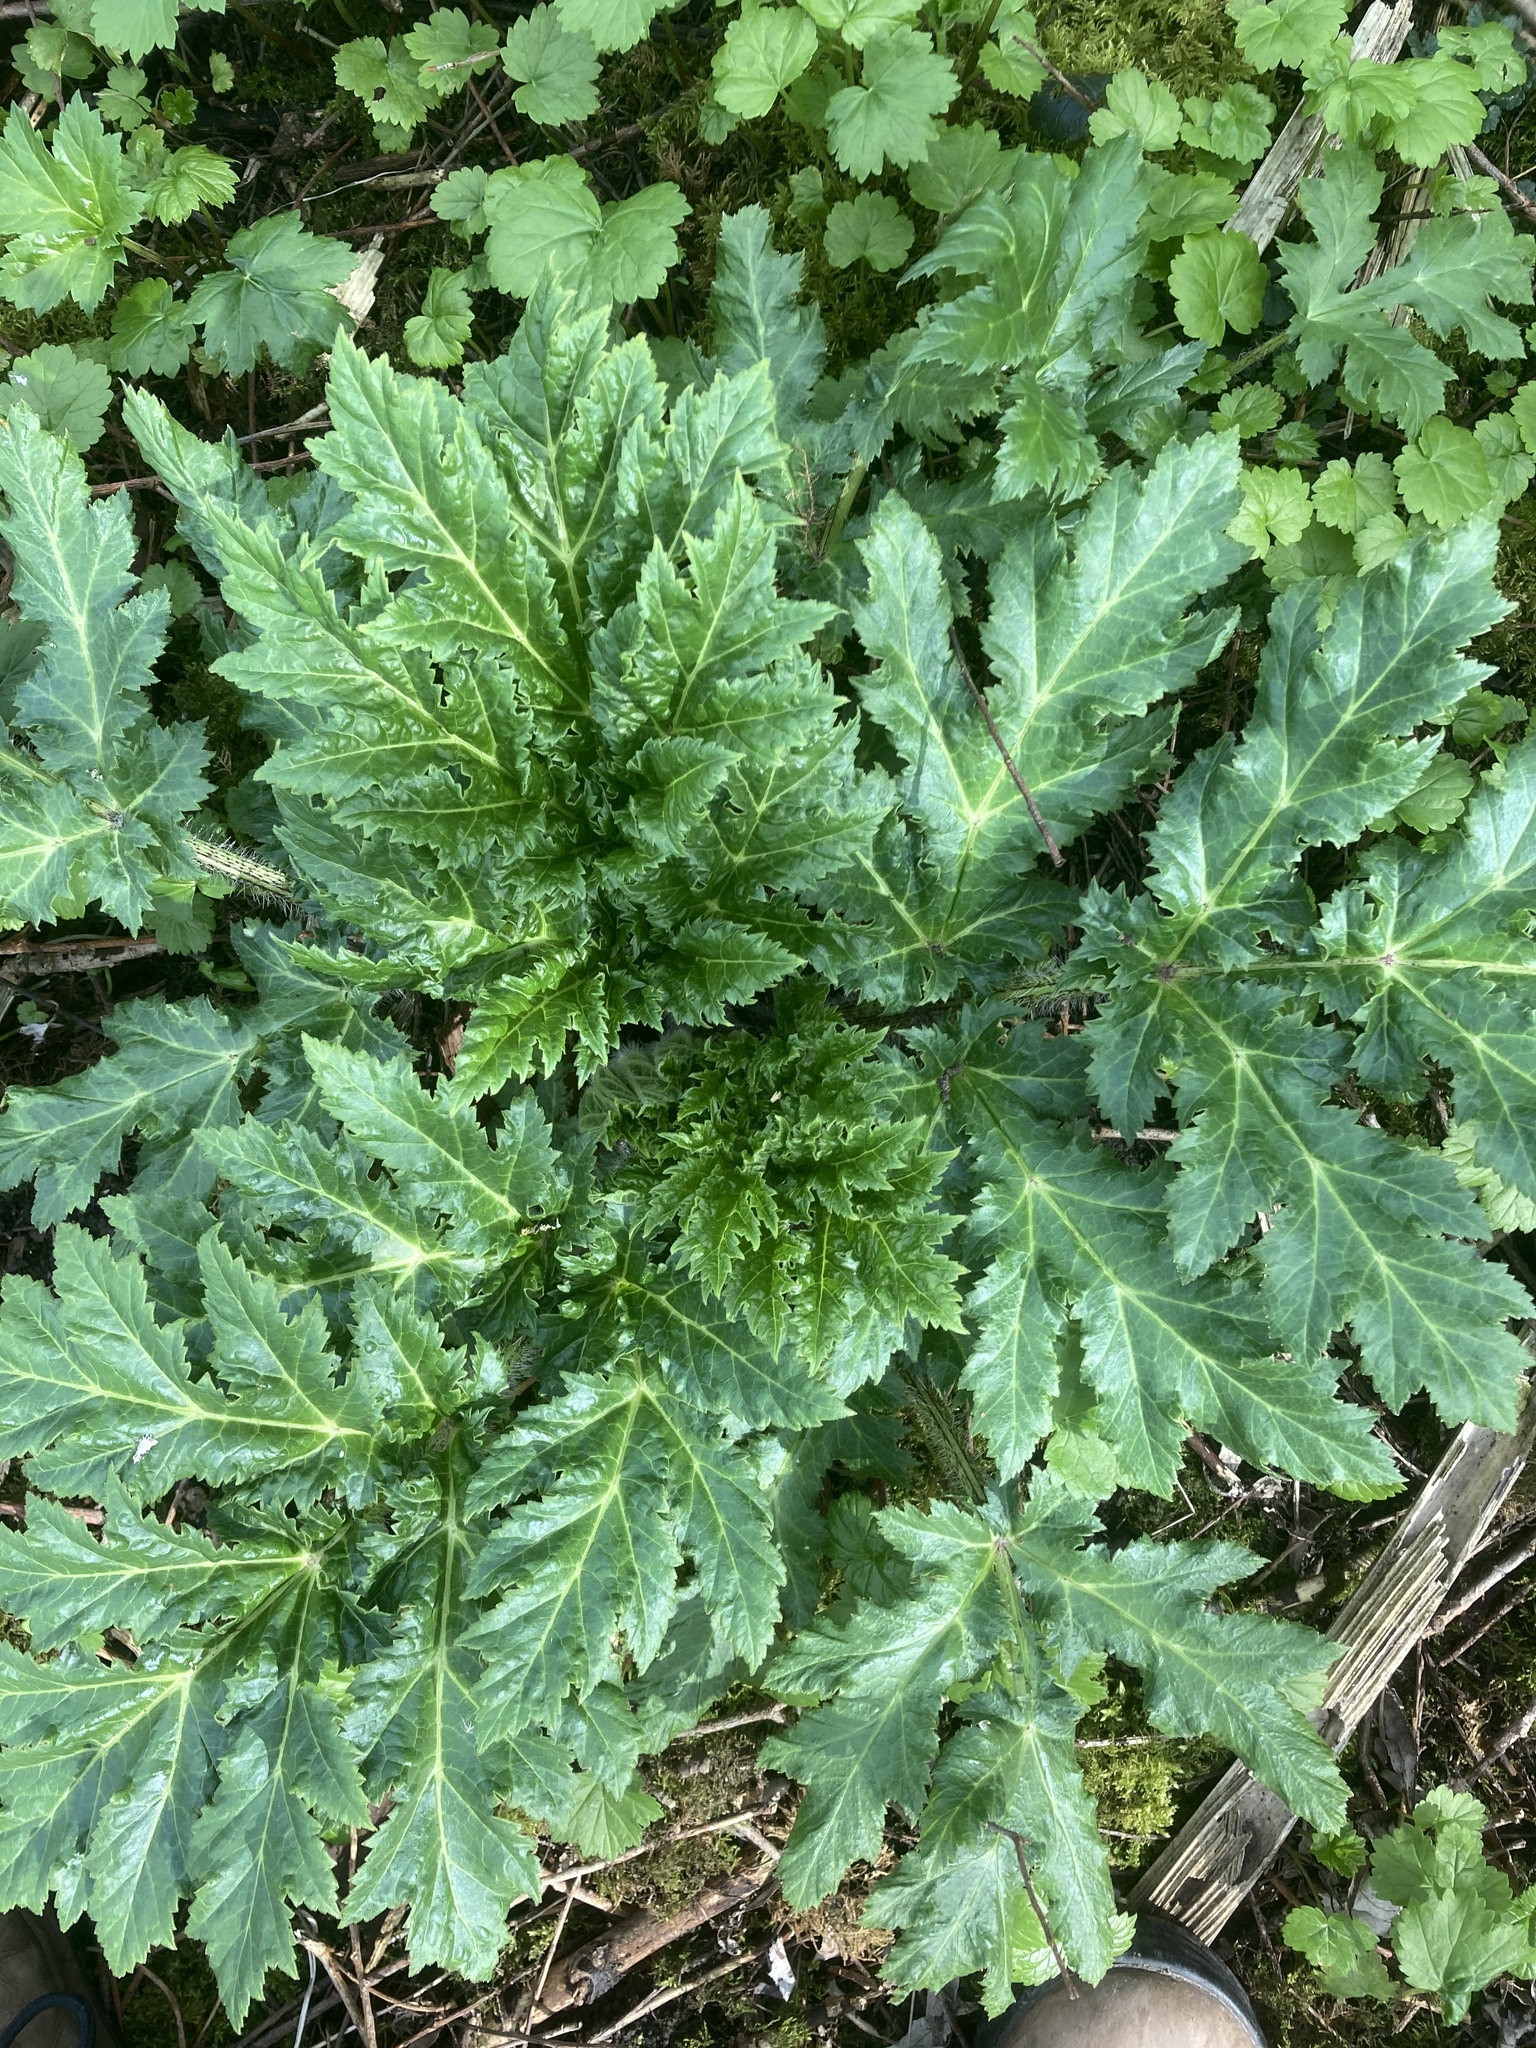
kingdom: Plantae
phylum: Tracheophyta
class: Magnoliopsida
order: Apiales
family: Apiaceae
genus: Heracleum
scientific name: Heracleum mantegazzianum
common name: Giant hogweed
